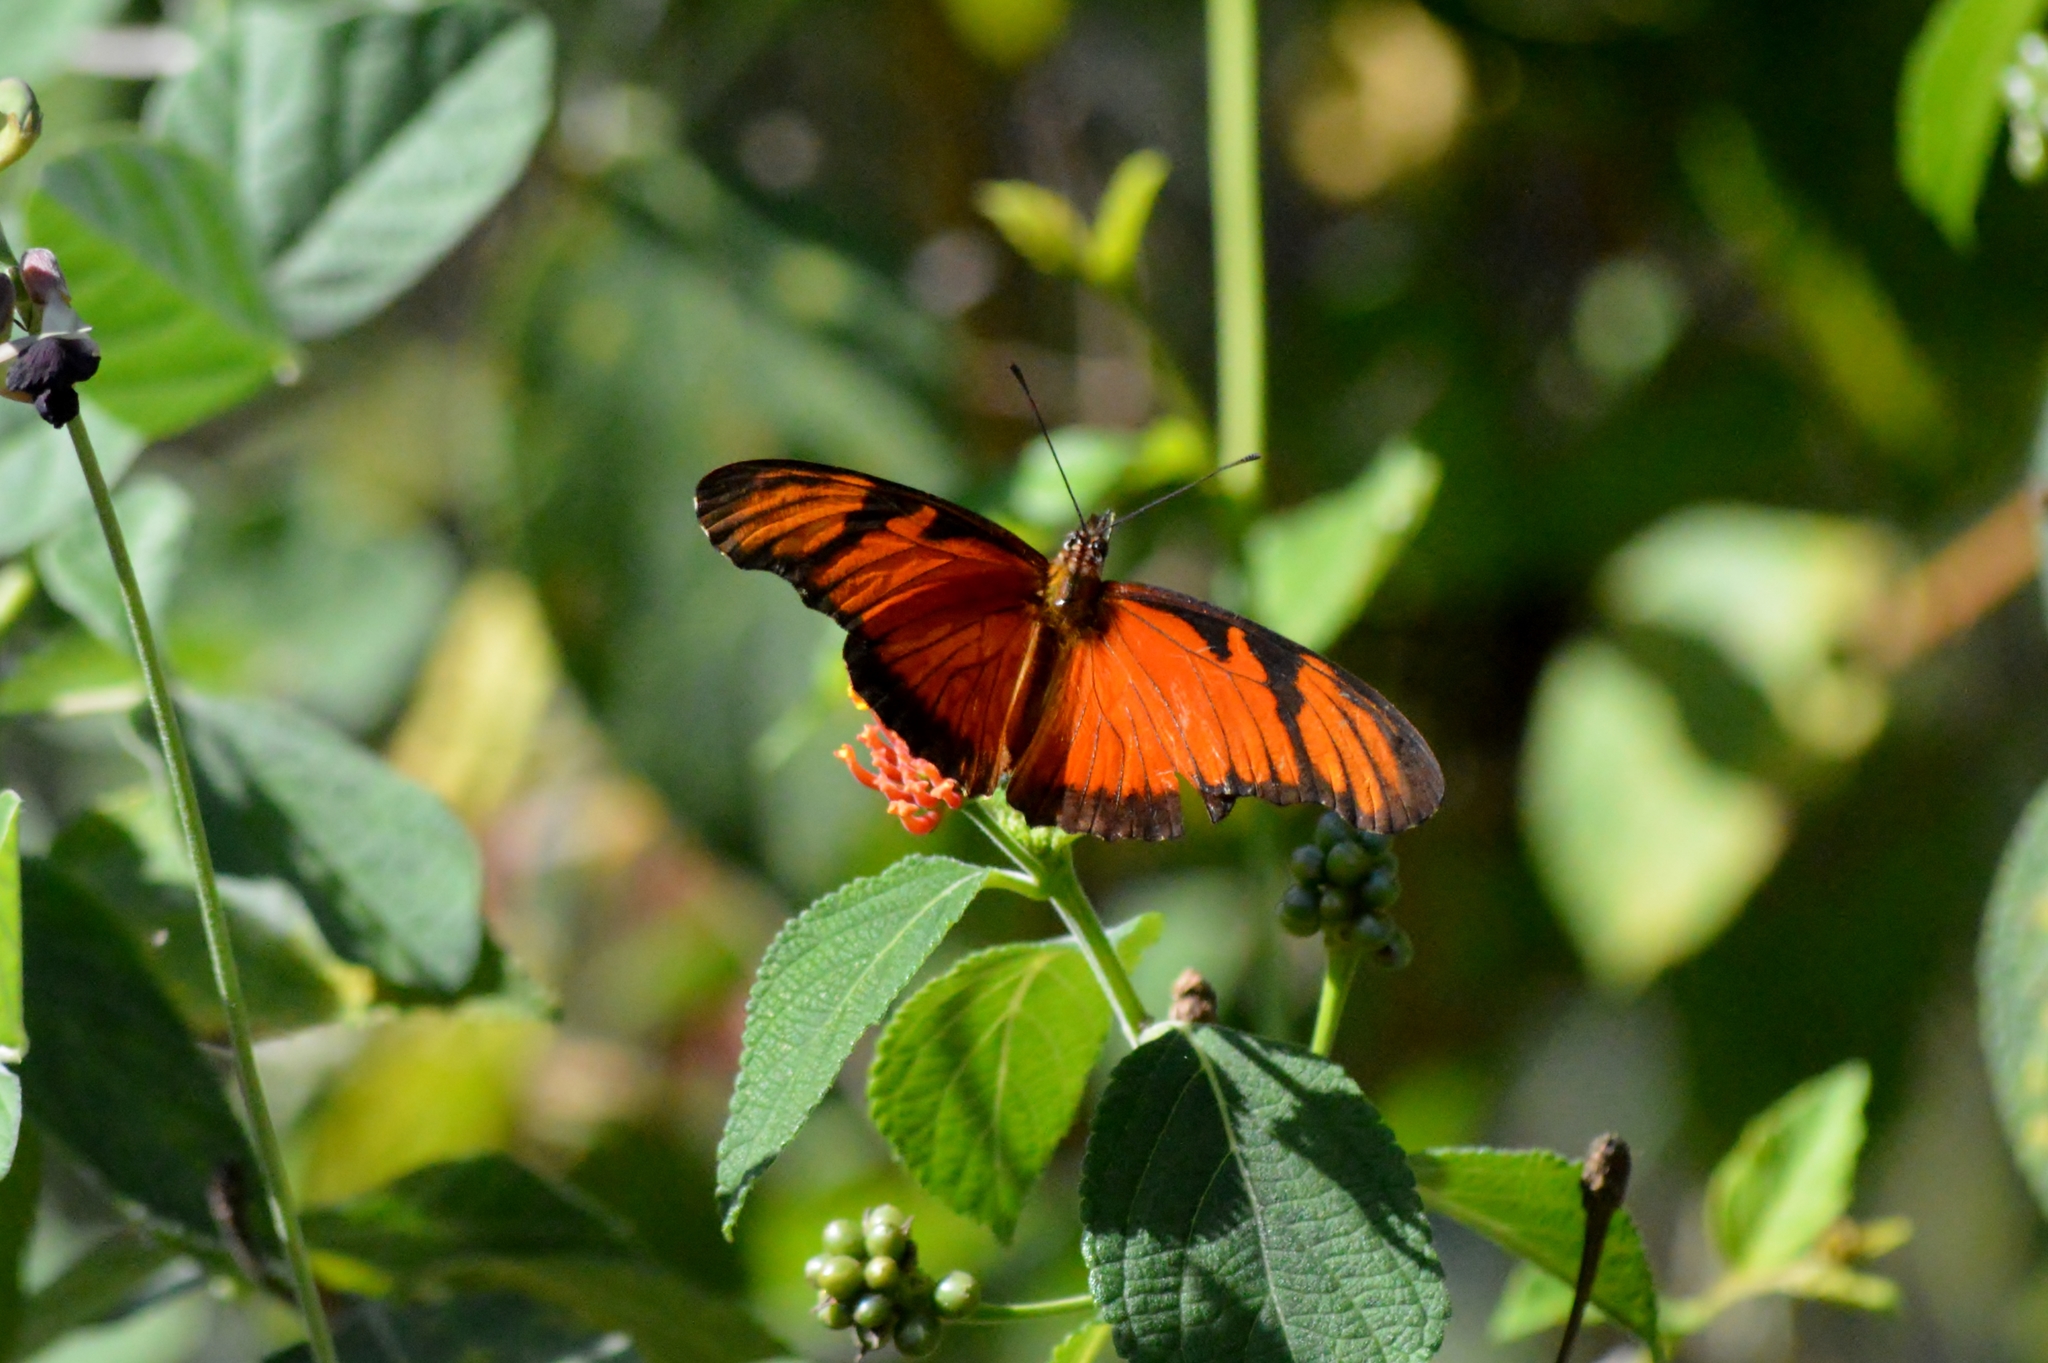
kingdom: Animalia
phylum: Arthropoda
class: Insecta
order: Lepidoptera
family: Nymphalidae
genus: Dione
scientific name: Dione juno
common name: Juno silverspot
